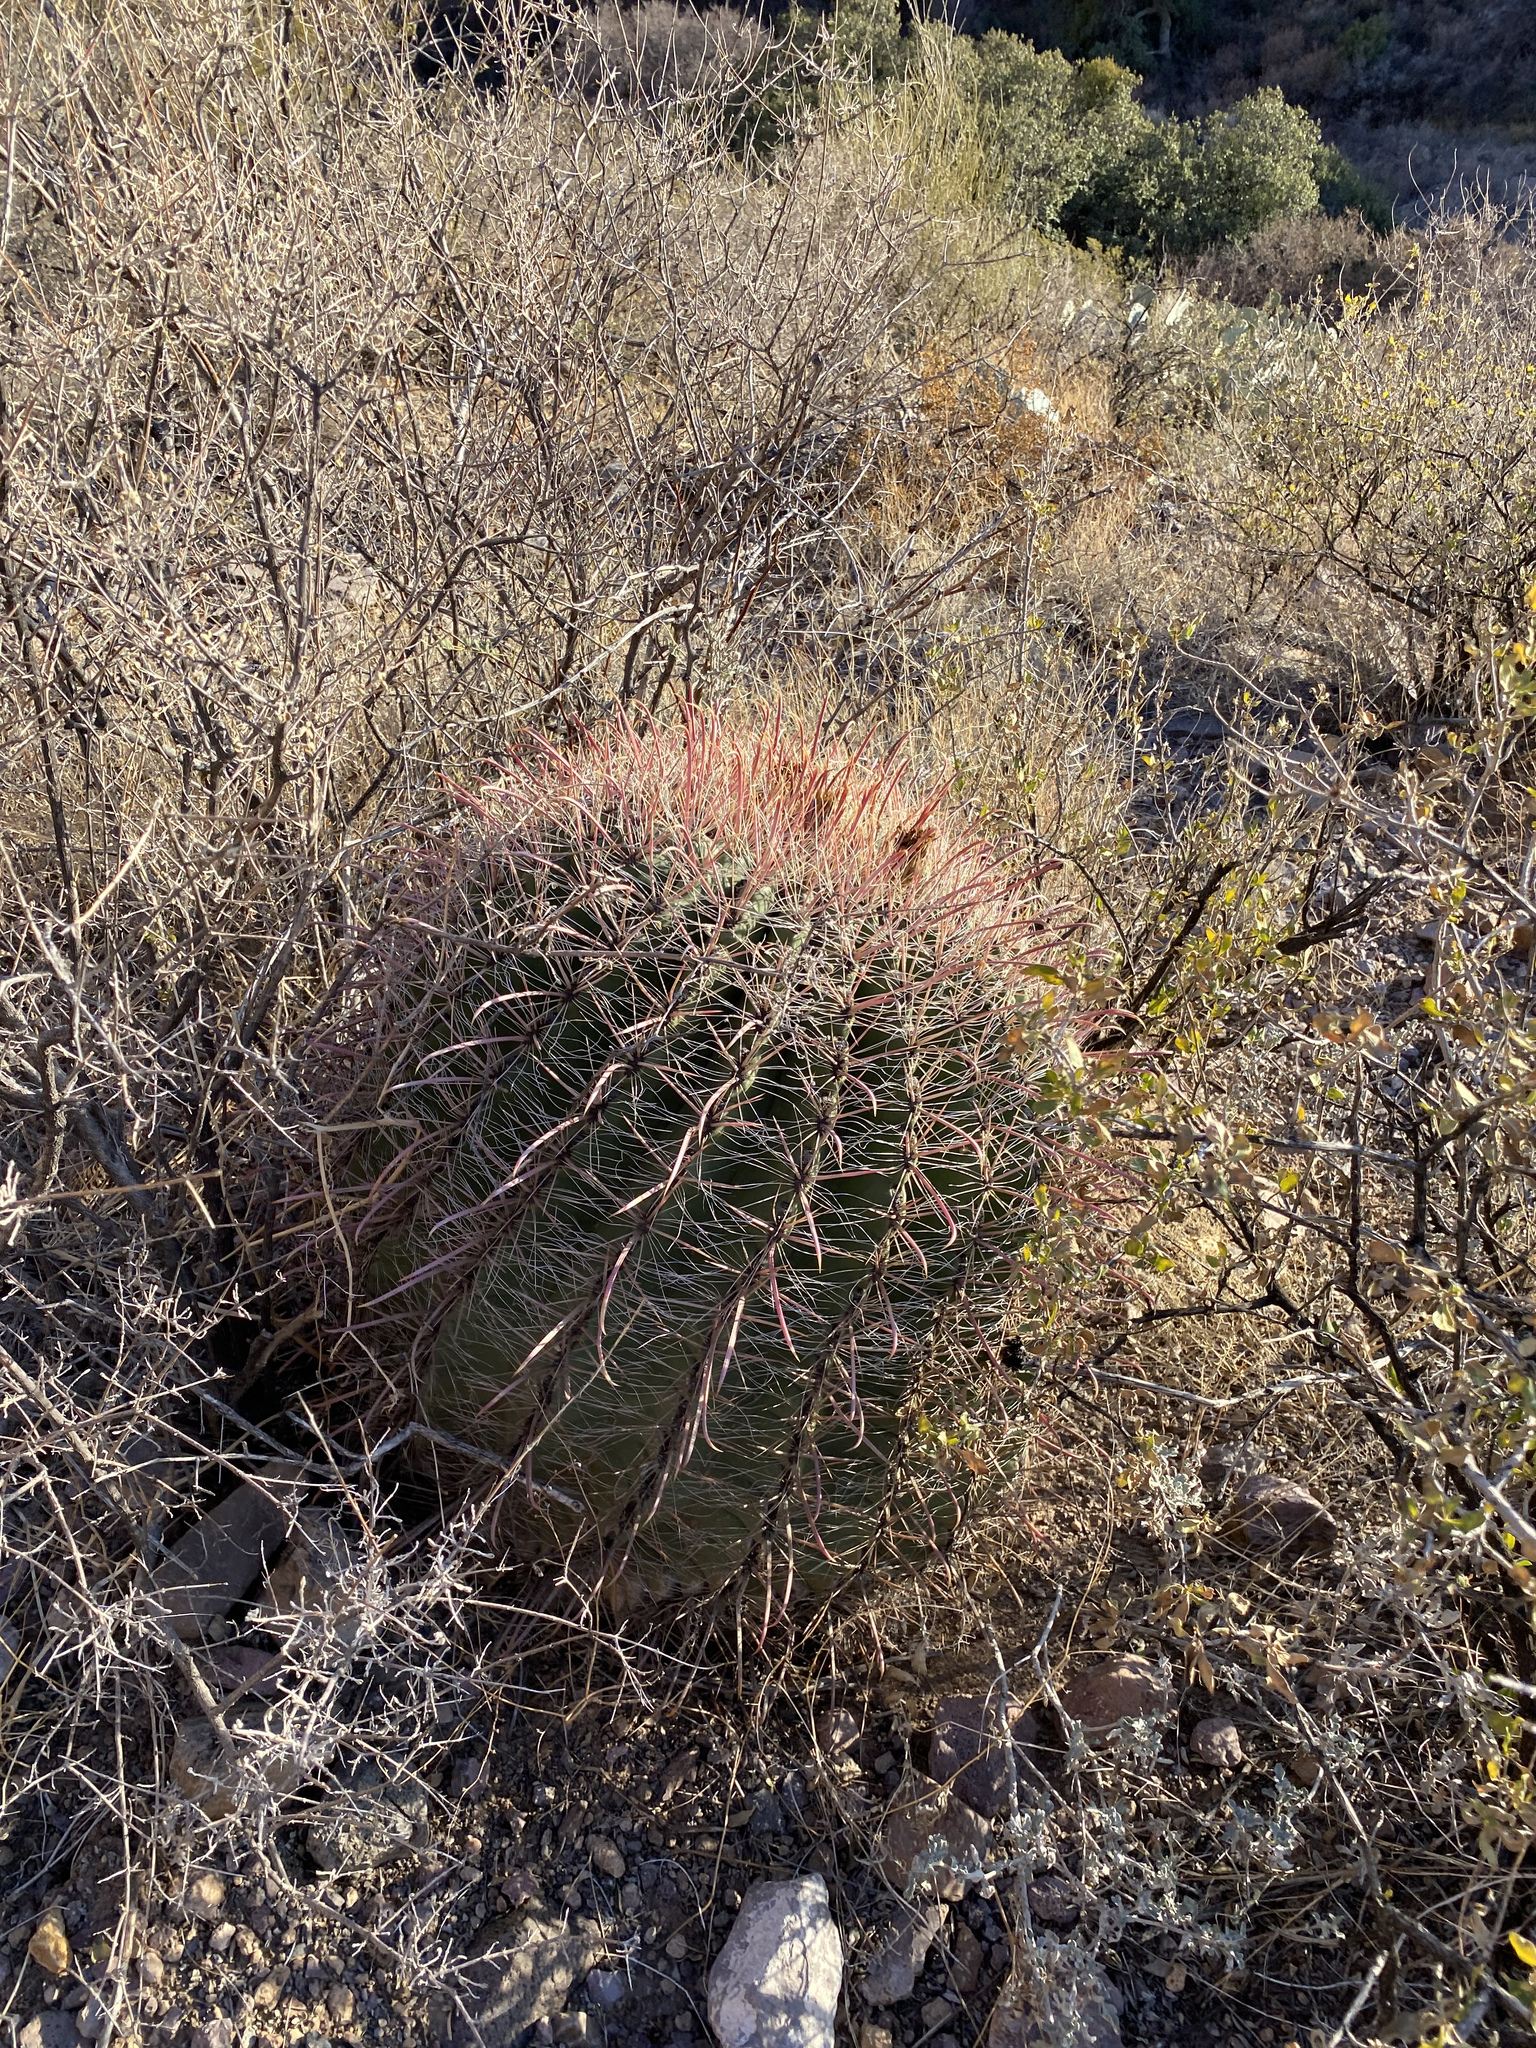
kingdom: Plantae
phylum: Tracheophyta
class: Magnoliopsida
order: Caryophyllales
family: Cactaceae
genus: Ferocactus
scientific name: Ferocactus wislizeni
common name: Candy barrel cactus
